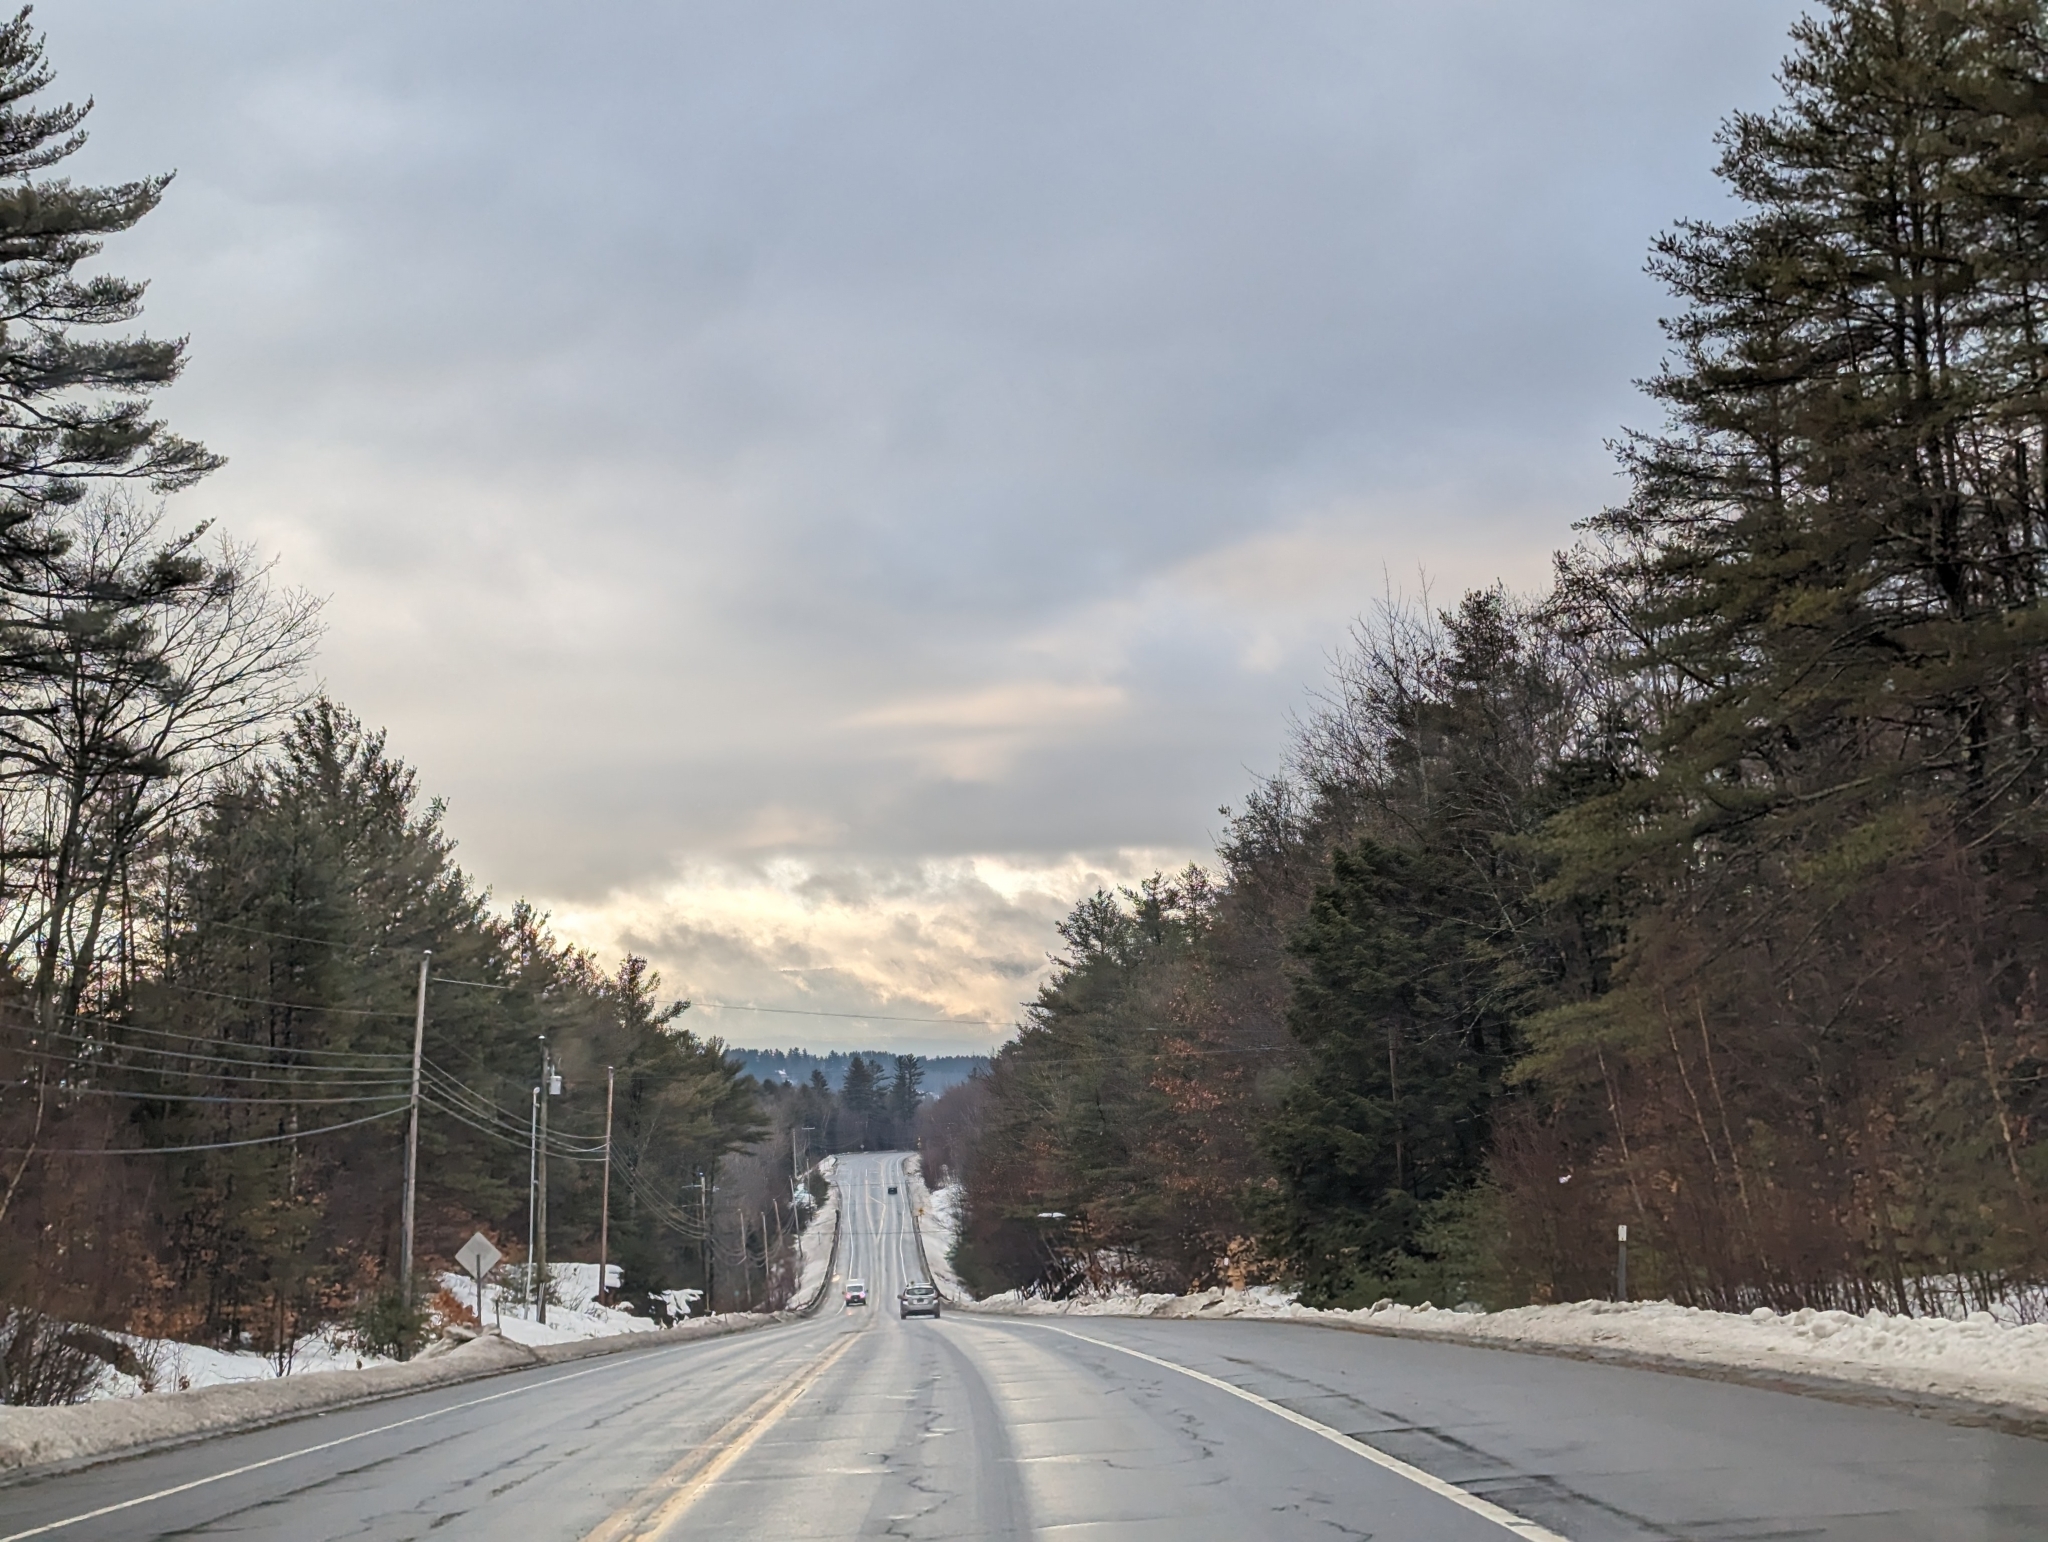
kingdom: Plantae
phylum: Tracheophyta
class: Pinopsida
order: Pinales
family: Pinaceae
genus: Pinus
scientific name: Pinus strobus
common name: Weymouth pine
